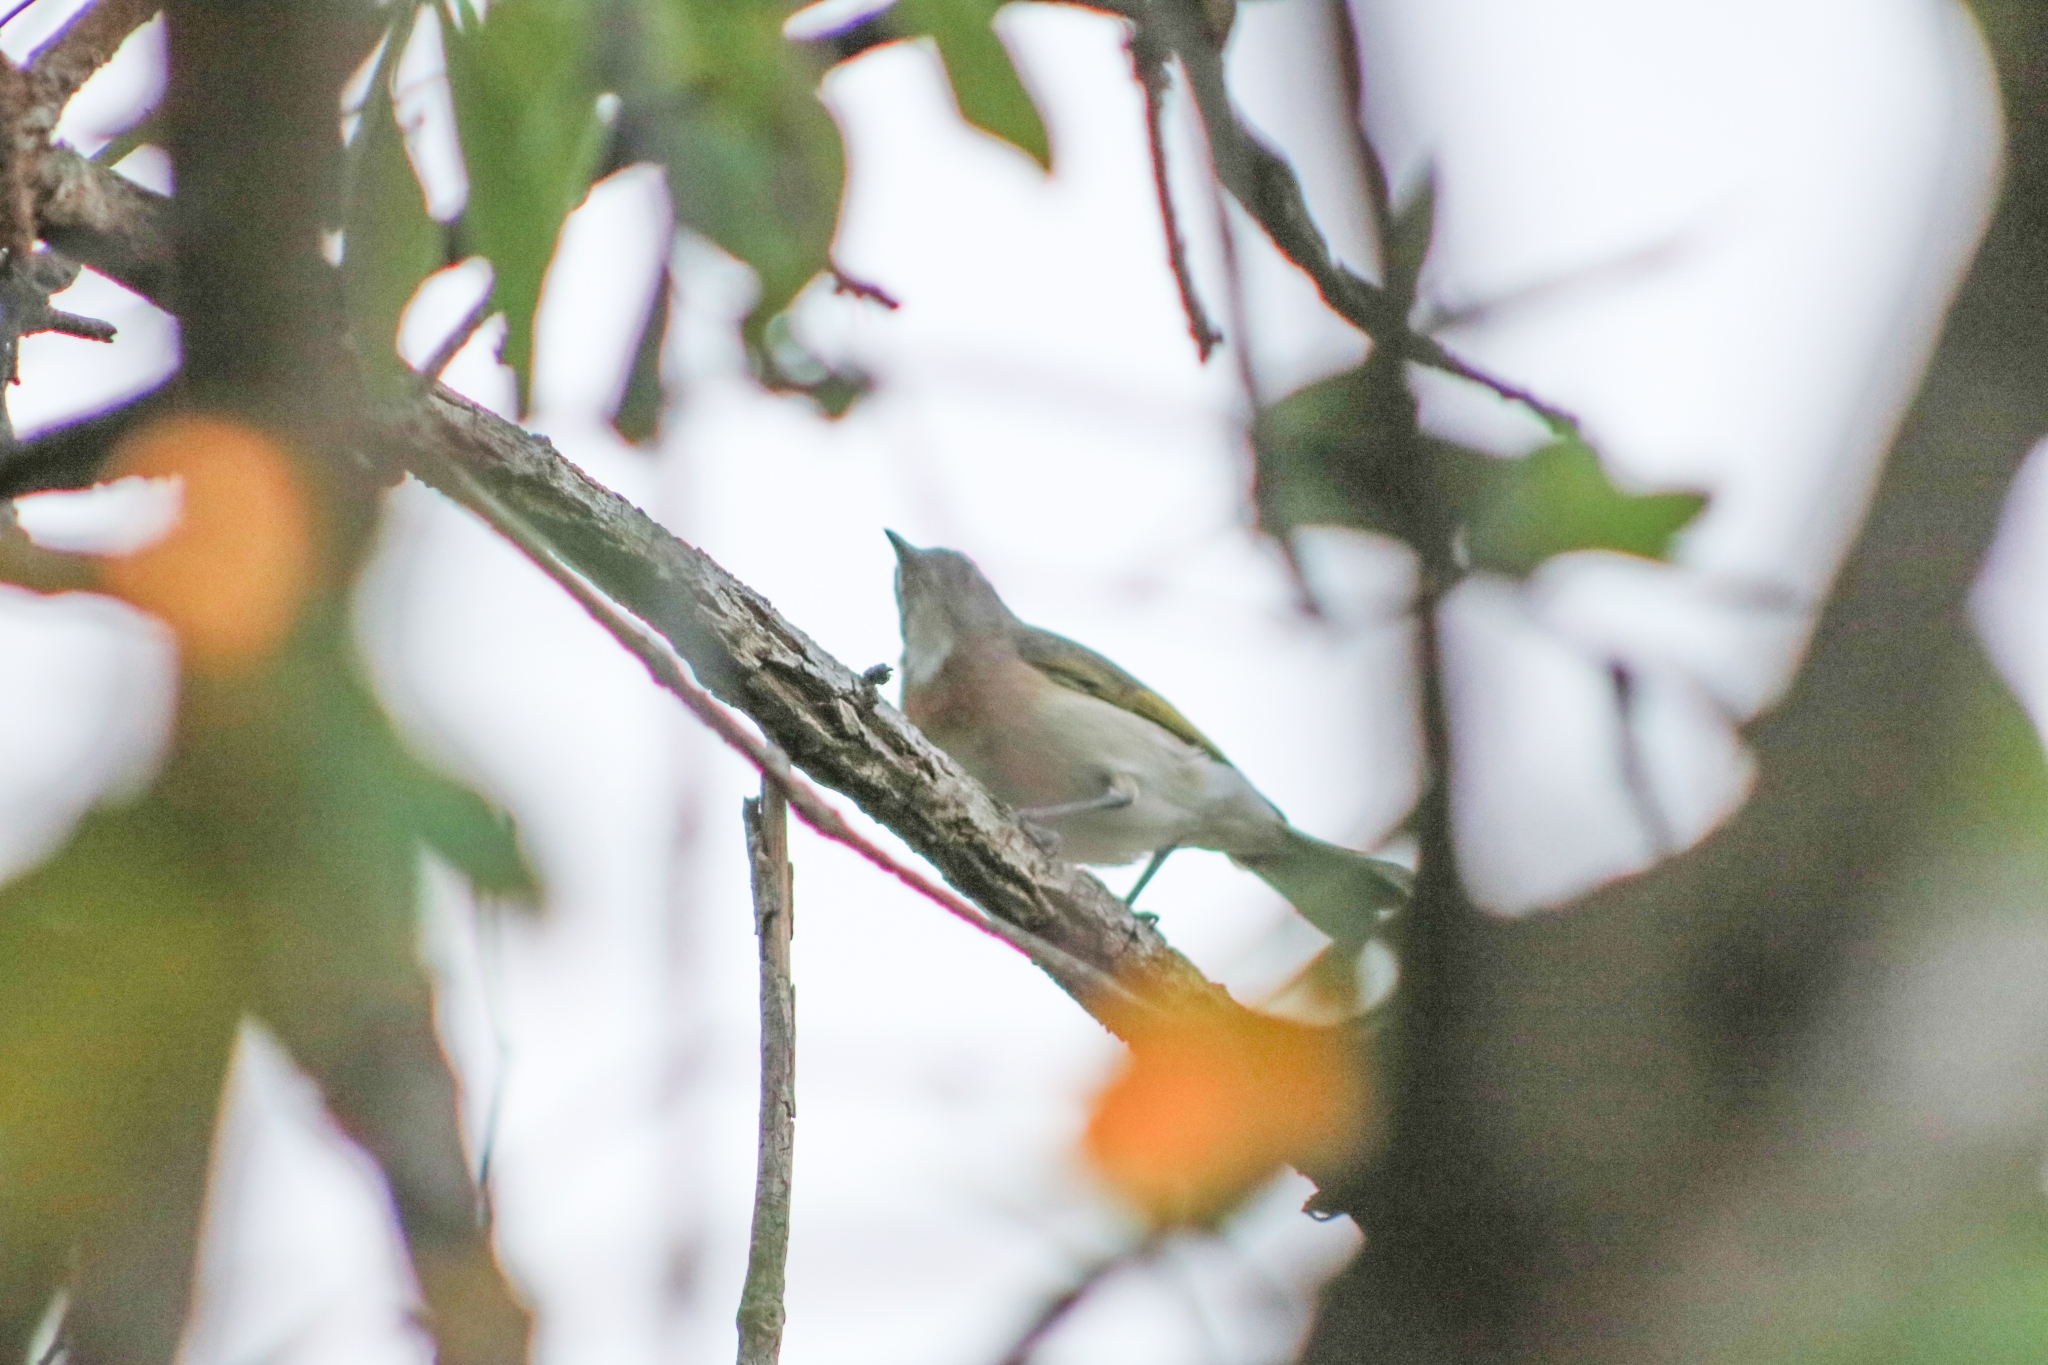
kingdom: Animalia
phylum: Chordata
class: Aves
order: Passeriformes
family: Meliphagidae
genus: Conopophila
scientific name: Conopophila albogularis
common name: Rufous-banded honeyeater
